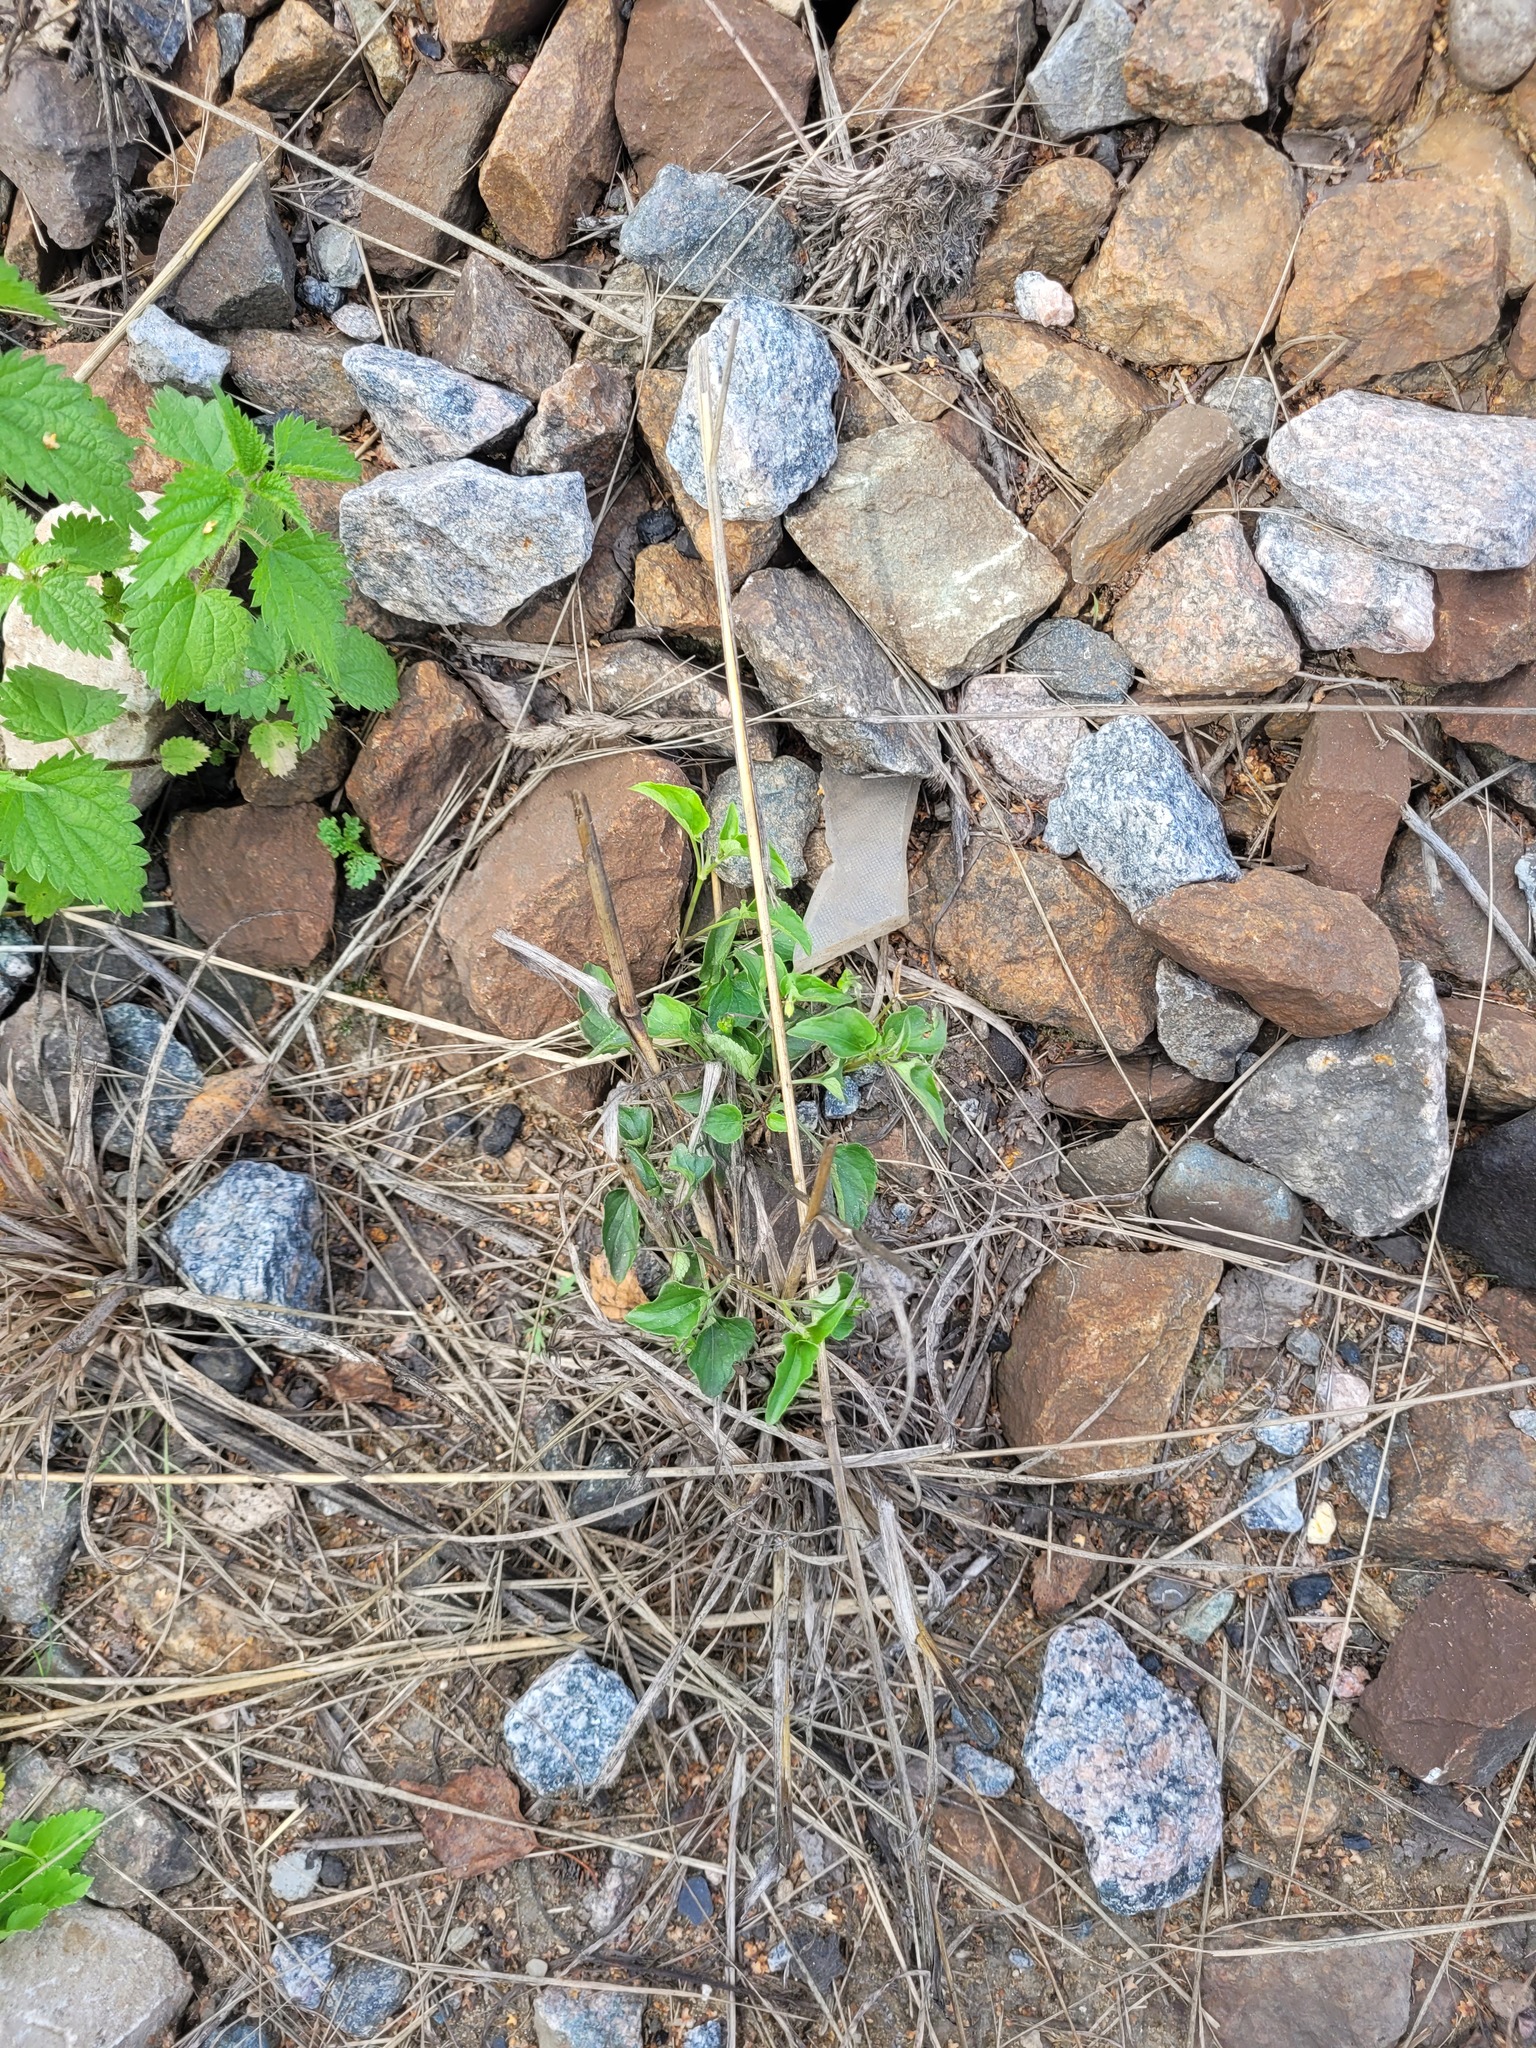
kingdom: Plantae
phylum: Tracheophyta
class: Magnoliopsida
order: Malpighiales
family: Violaceae
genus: Viola
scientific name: Viola canina
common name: Heath dog-violet
